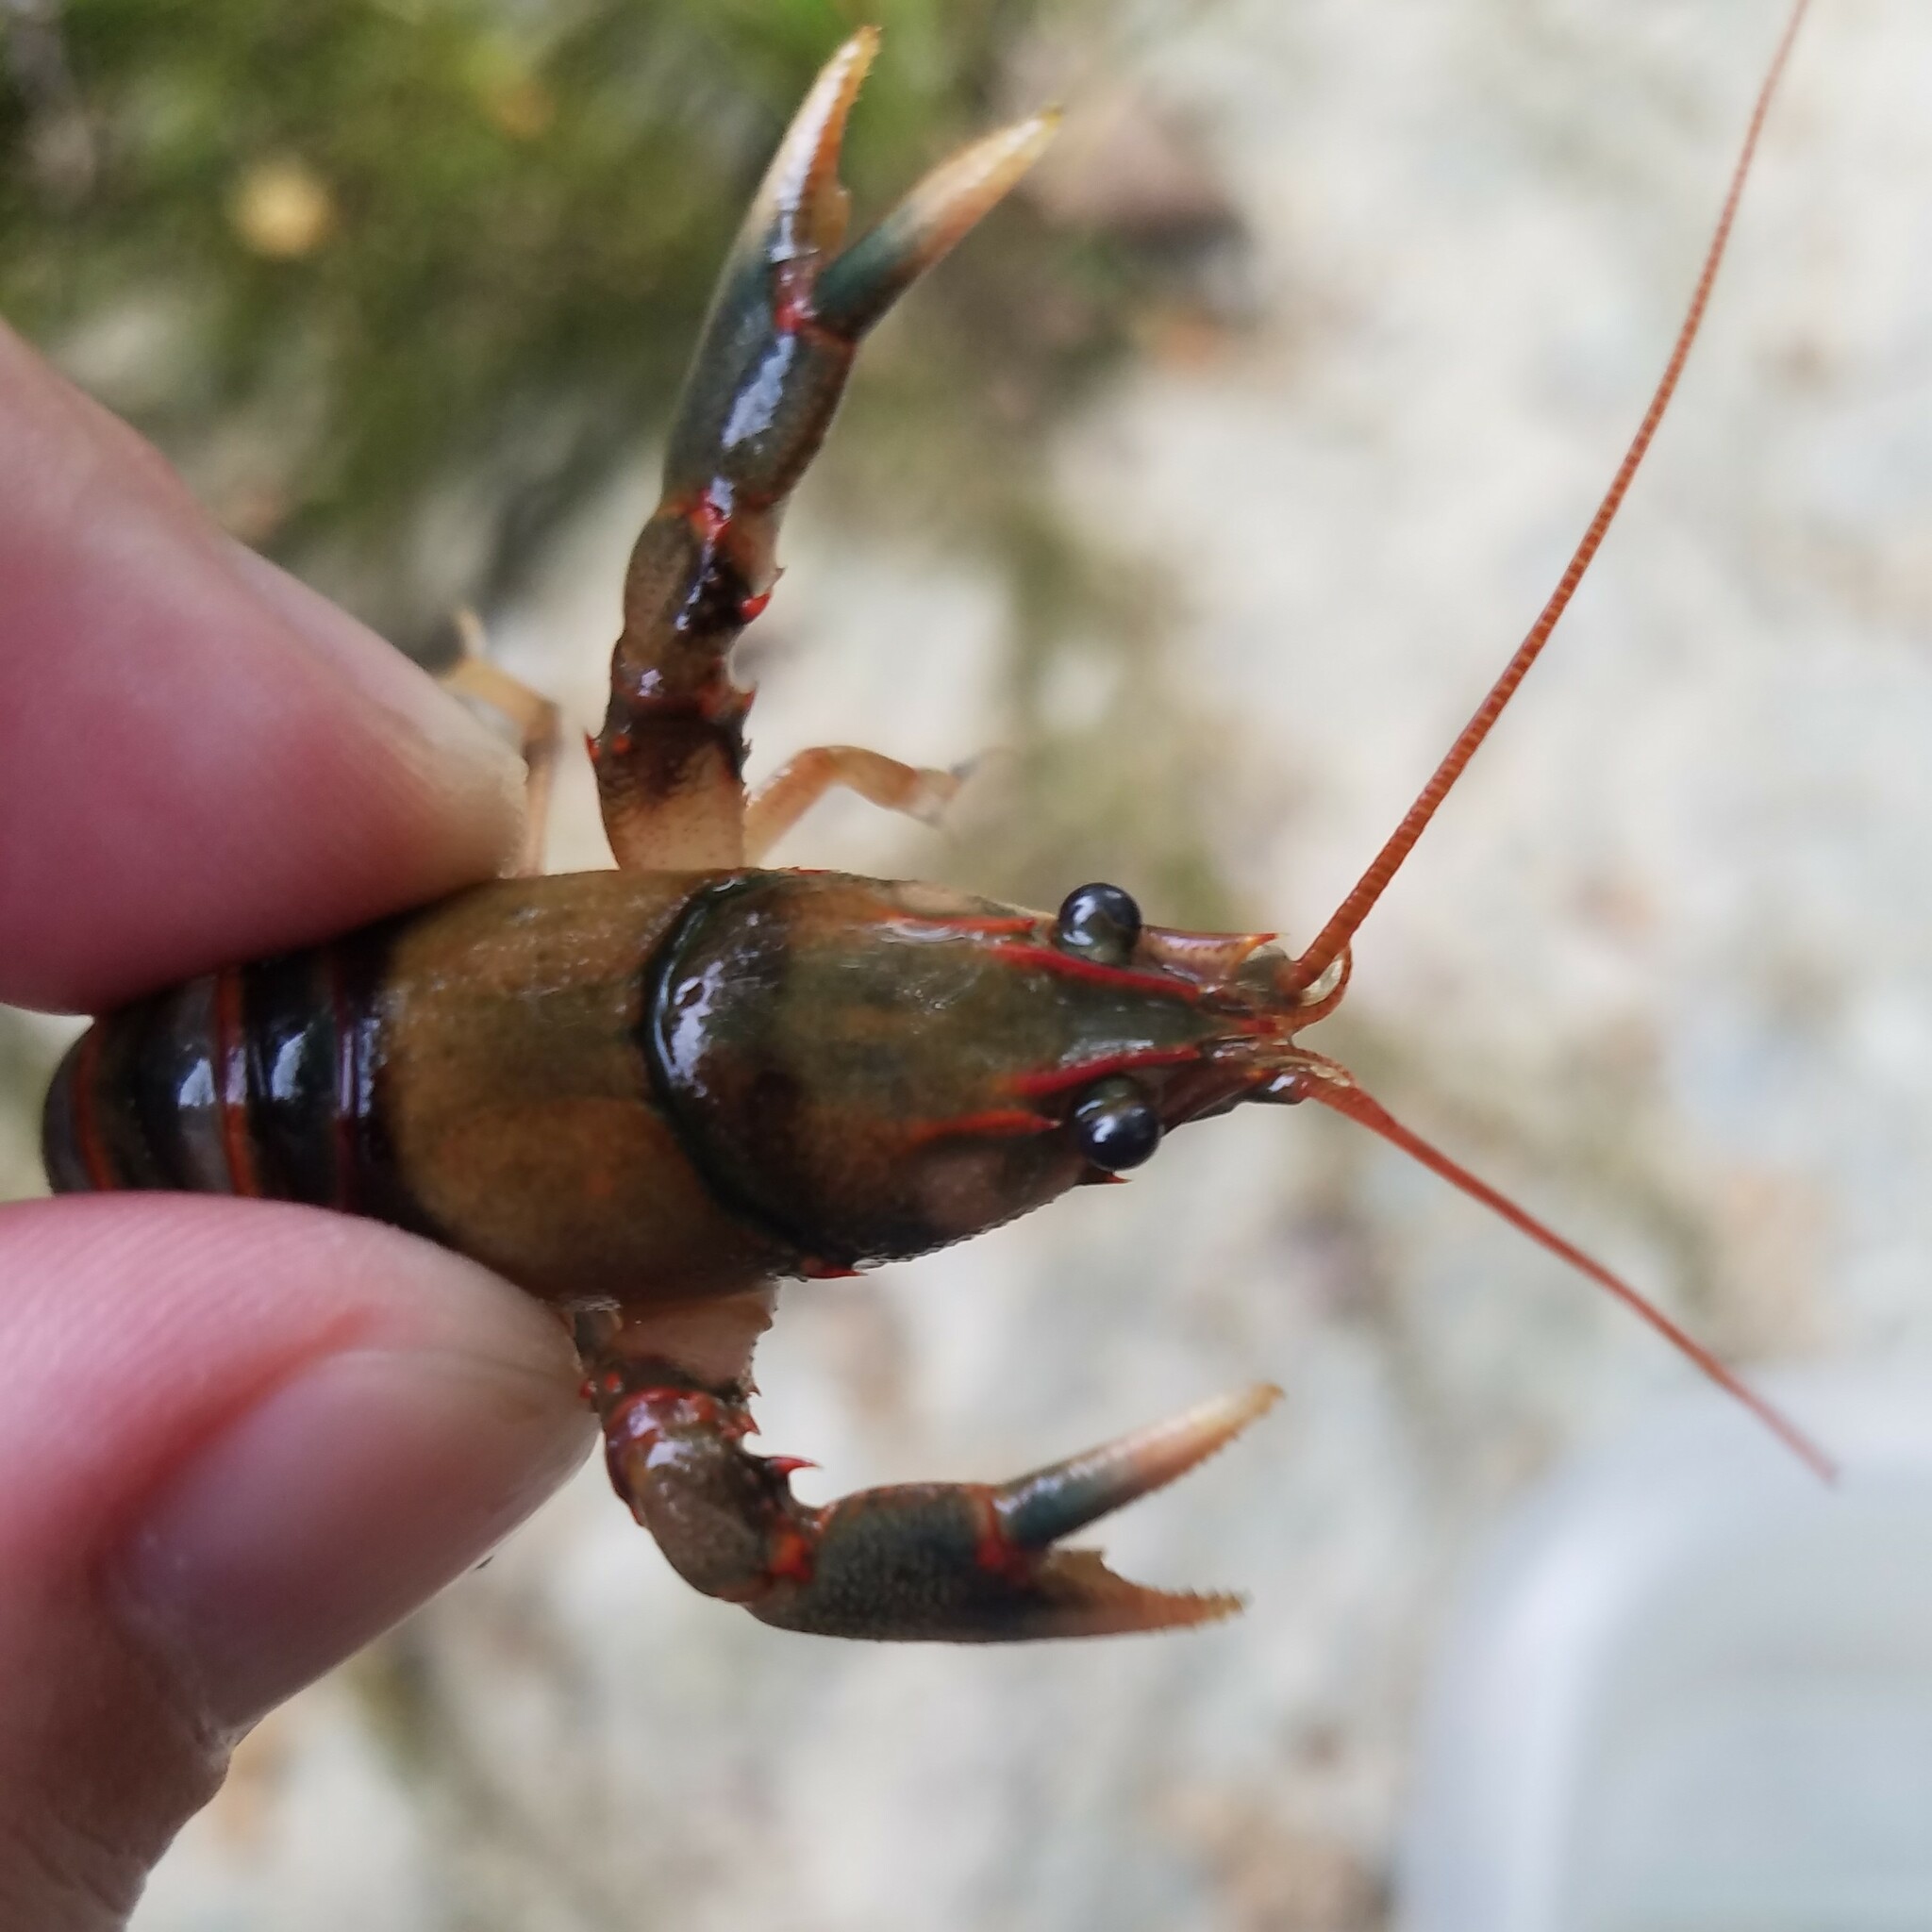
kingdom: Animalia
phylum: Arthropoda
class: Malacostraca
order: Decapoda
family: Cambaridae
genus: Cambarus
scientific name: Cambarus fasciatus
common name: Etowah crayfish
